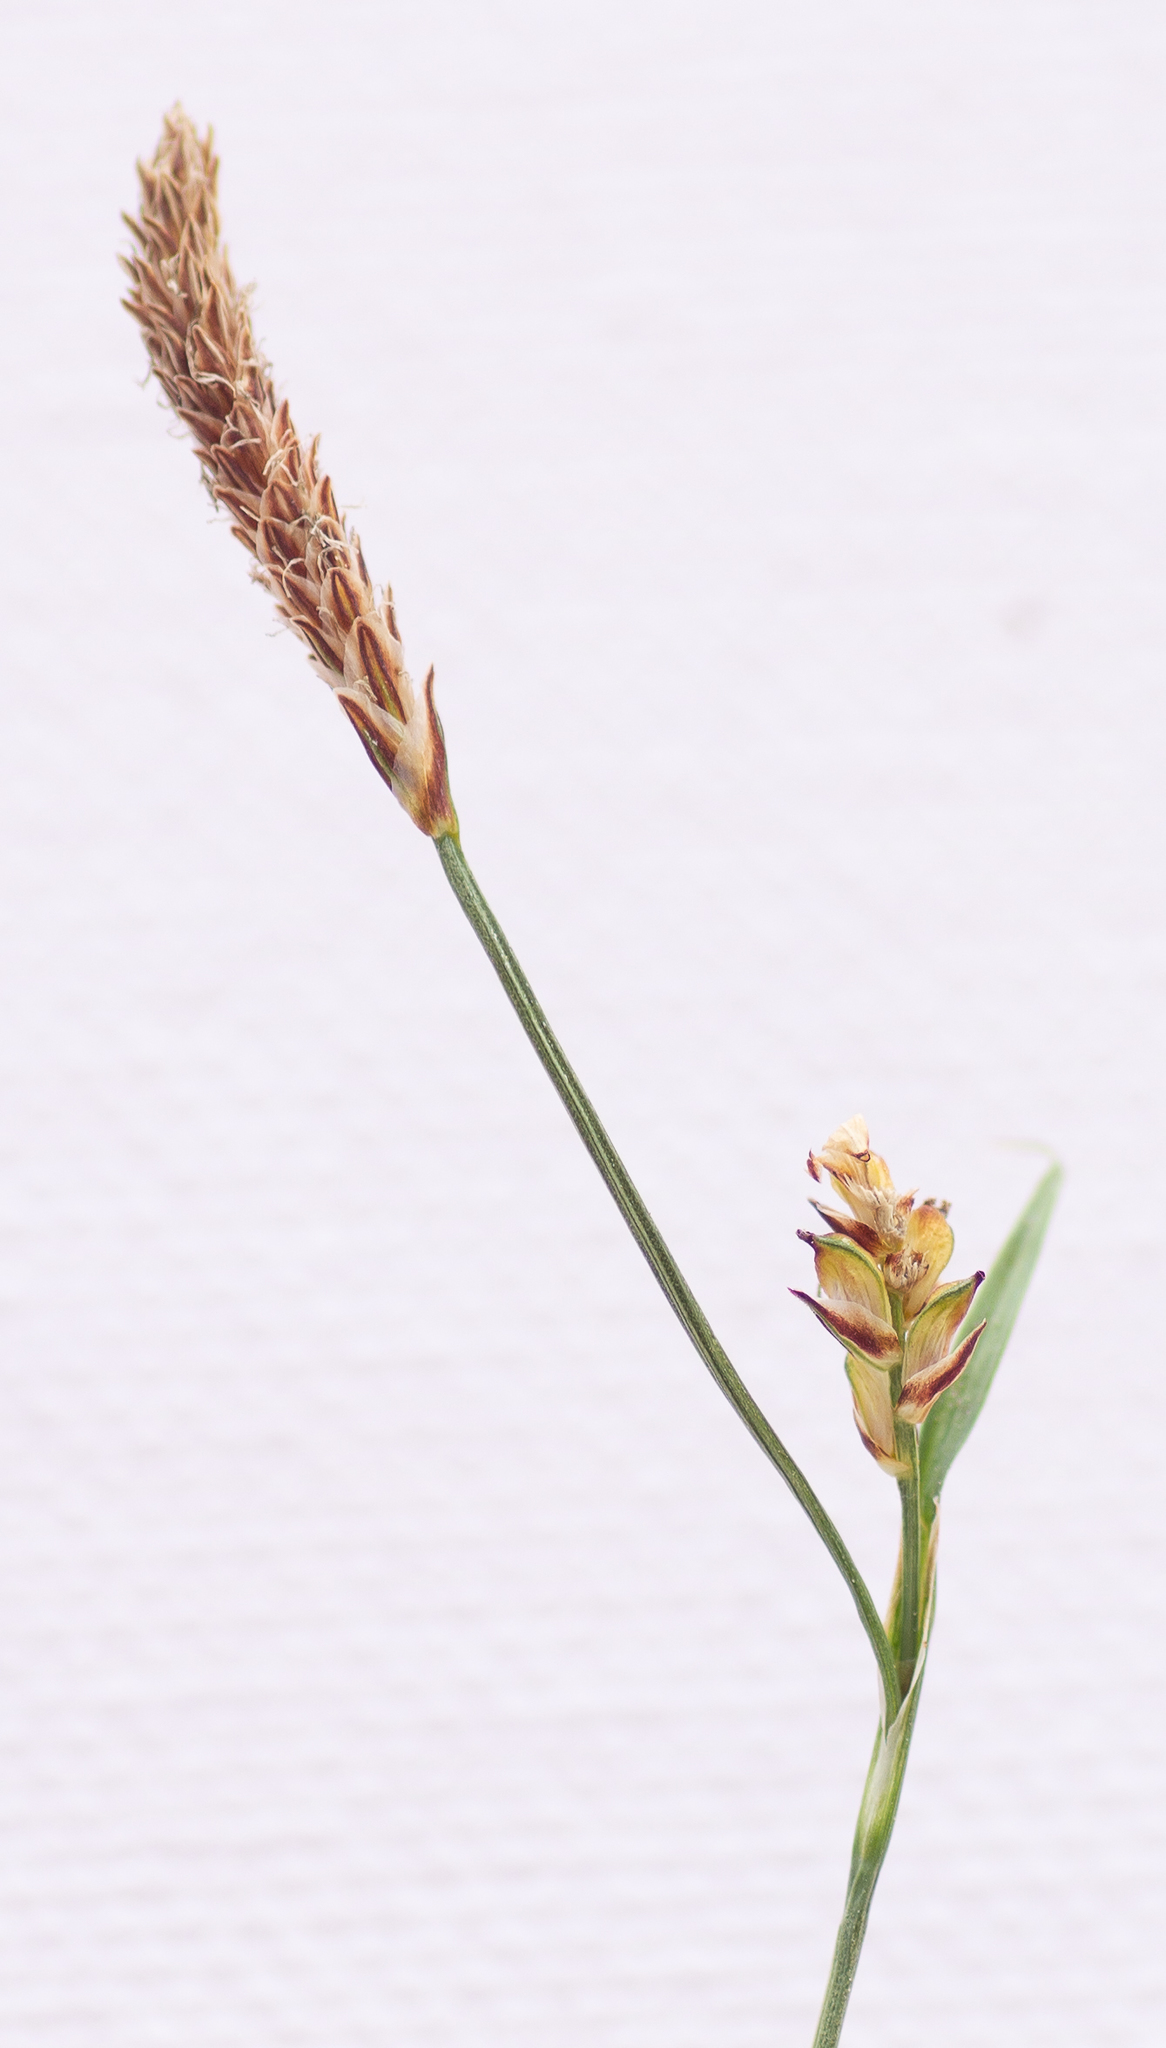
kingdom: Plantae
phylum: Tracheophyta
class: Liliopsida
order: Poales
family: Cyperaceae
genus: Carex
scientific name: Carex panicea
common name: Carnation sedge
